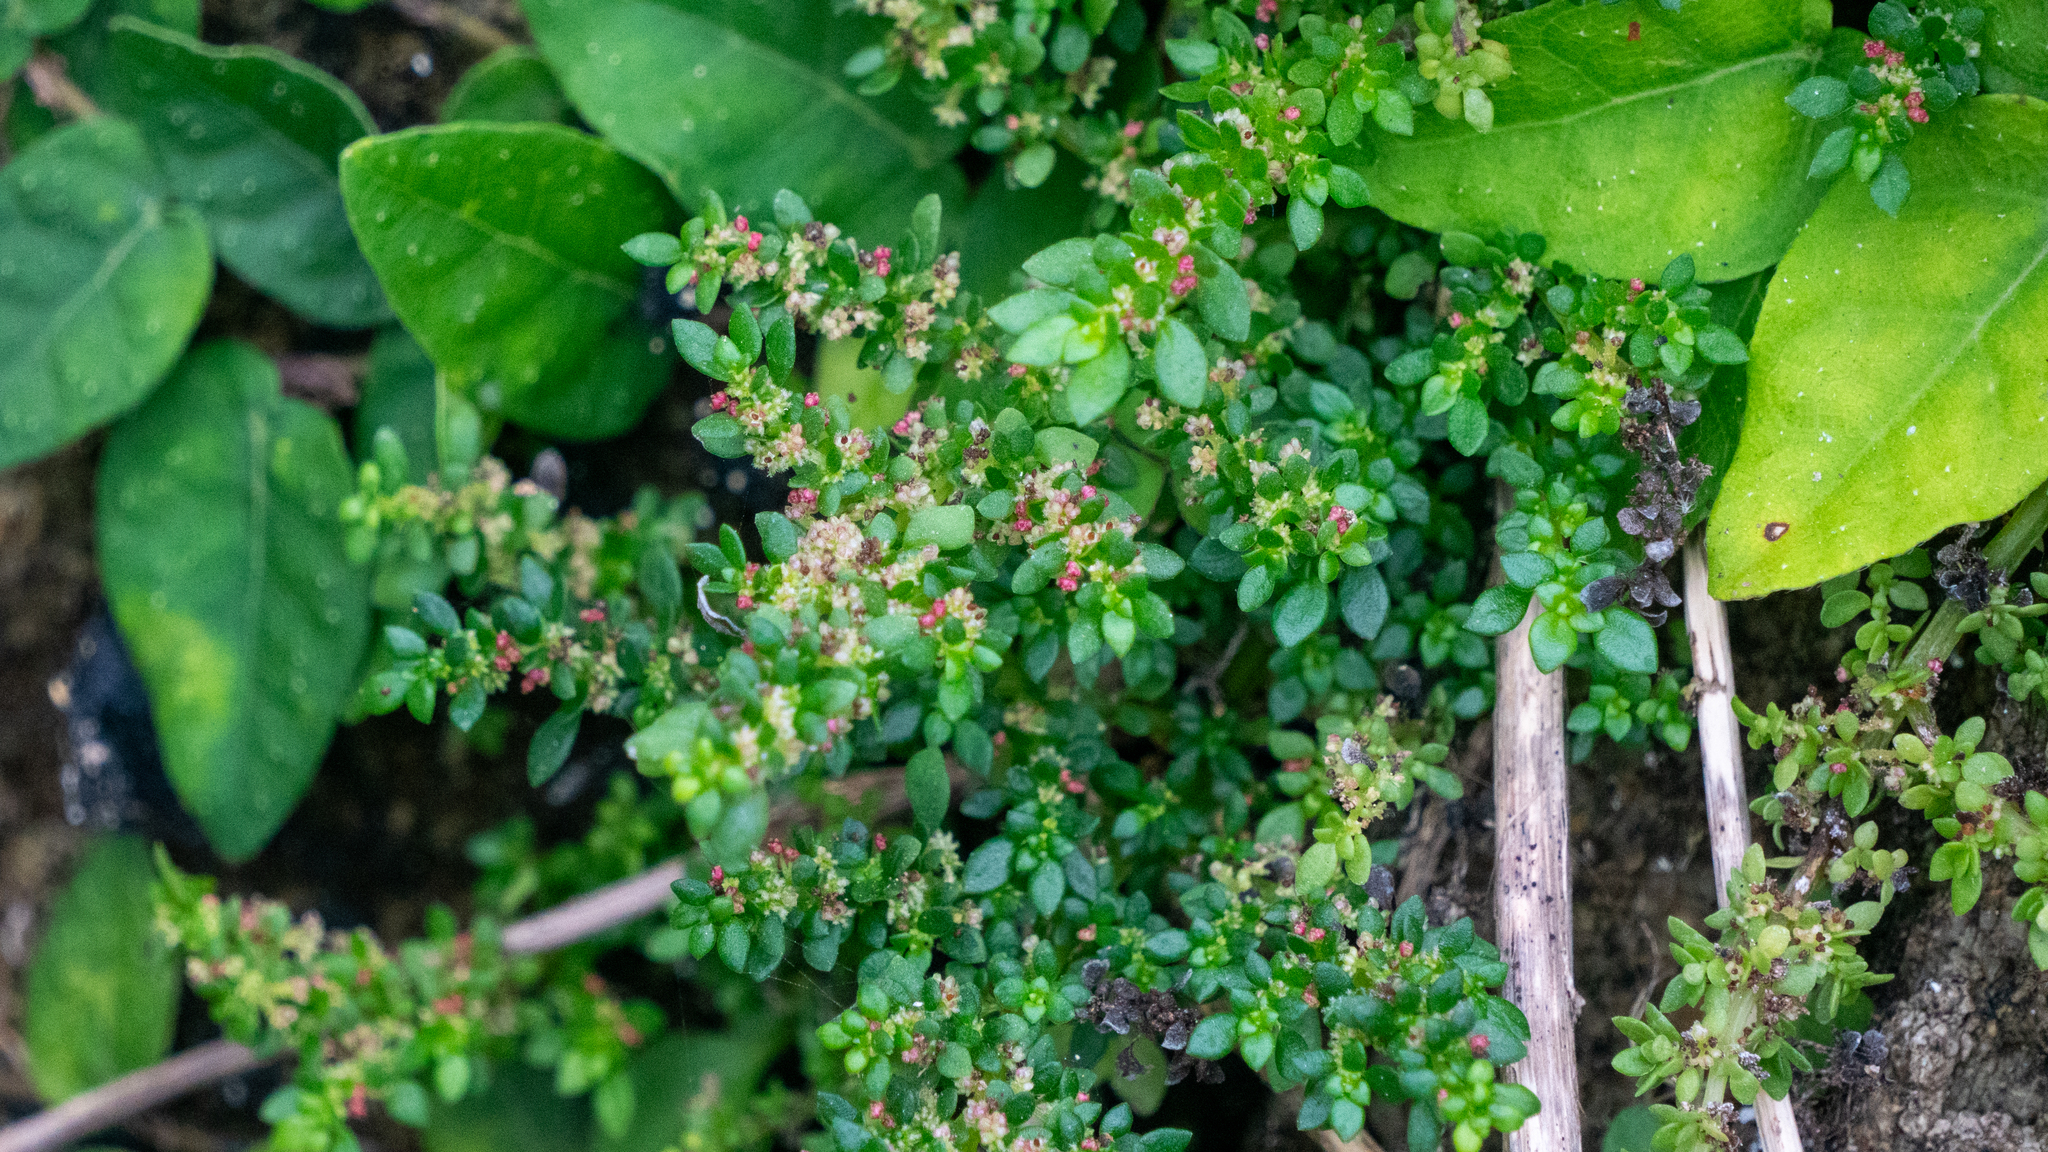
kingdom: Plantae
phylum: Tracheophyta
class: Magnoliopsida
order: Rosales
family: Urticaceae
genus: Pilea
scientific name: Pilea microphylla
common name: Artillery-plant
